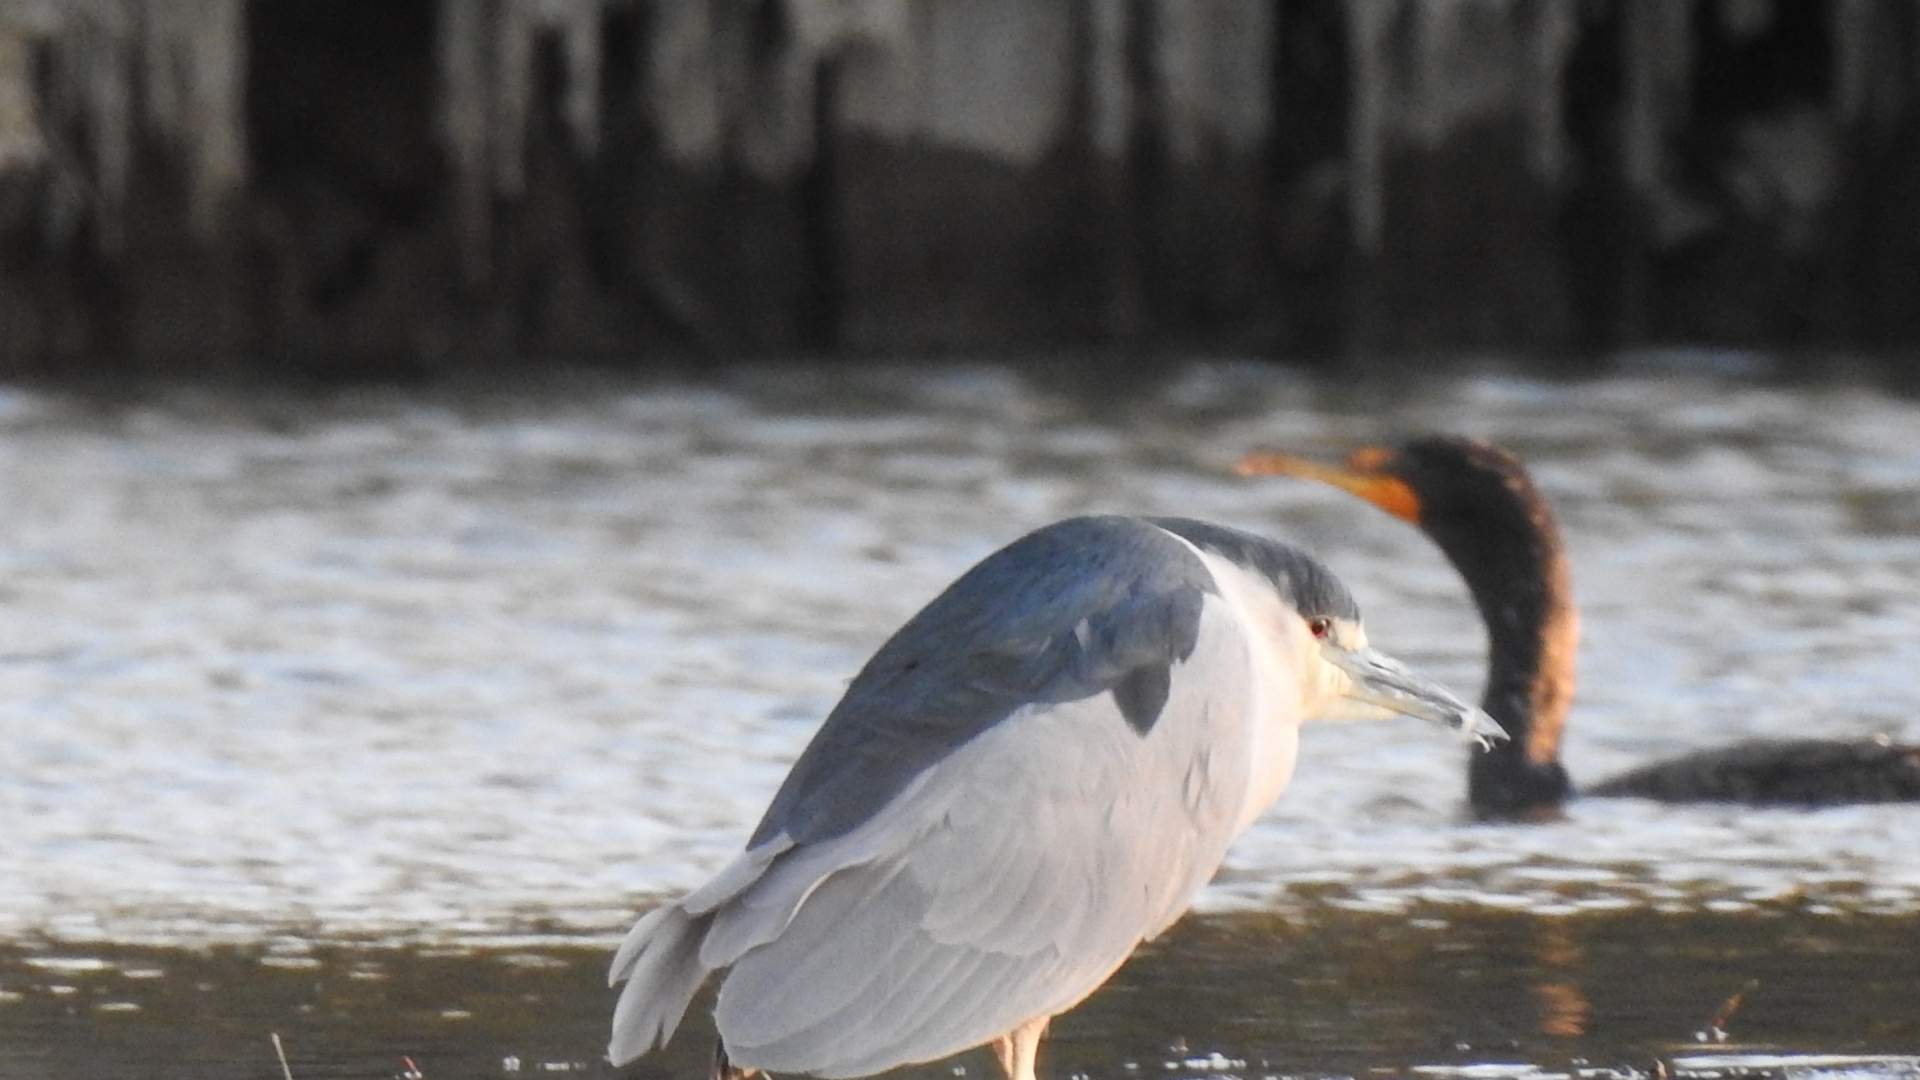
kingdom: Animalia
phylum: Chordata
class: Aves
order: Pelecaniformes
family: Ardeidae
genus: Nycticorax
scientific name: Nycticorax nycticorax
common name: Black-crowned night heron
